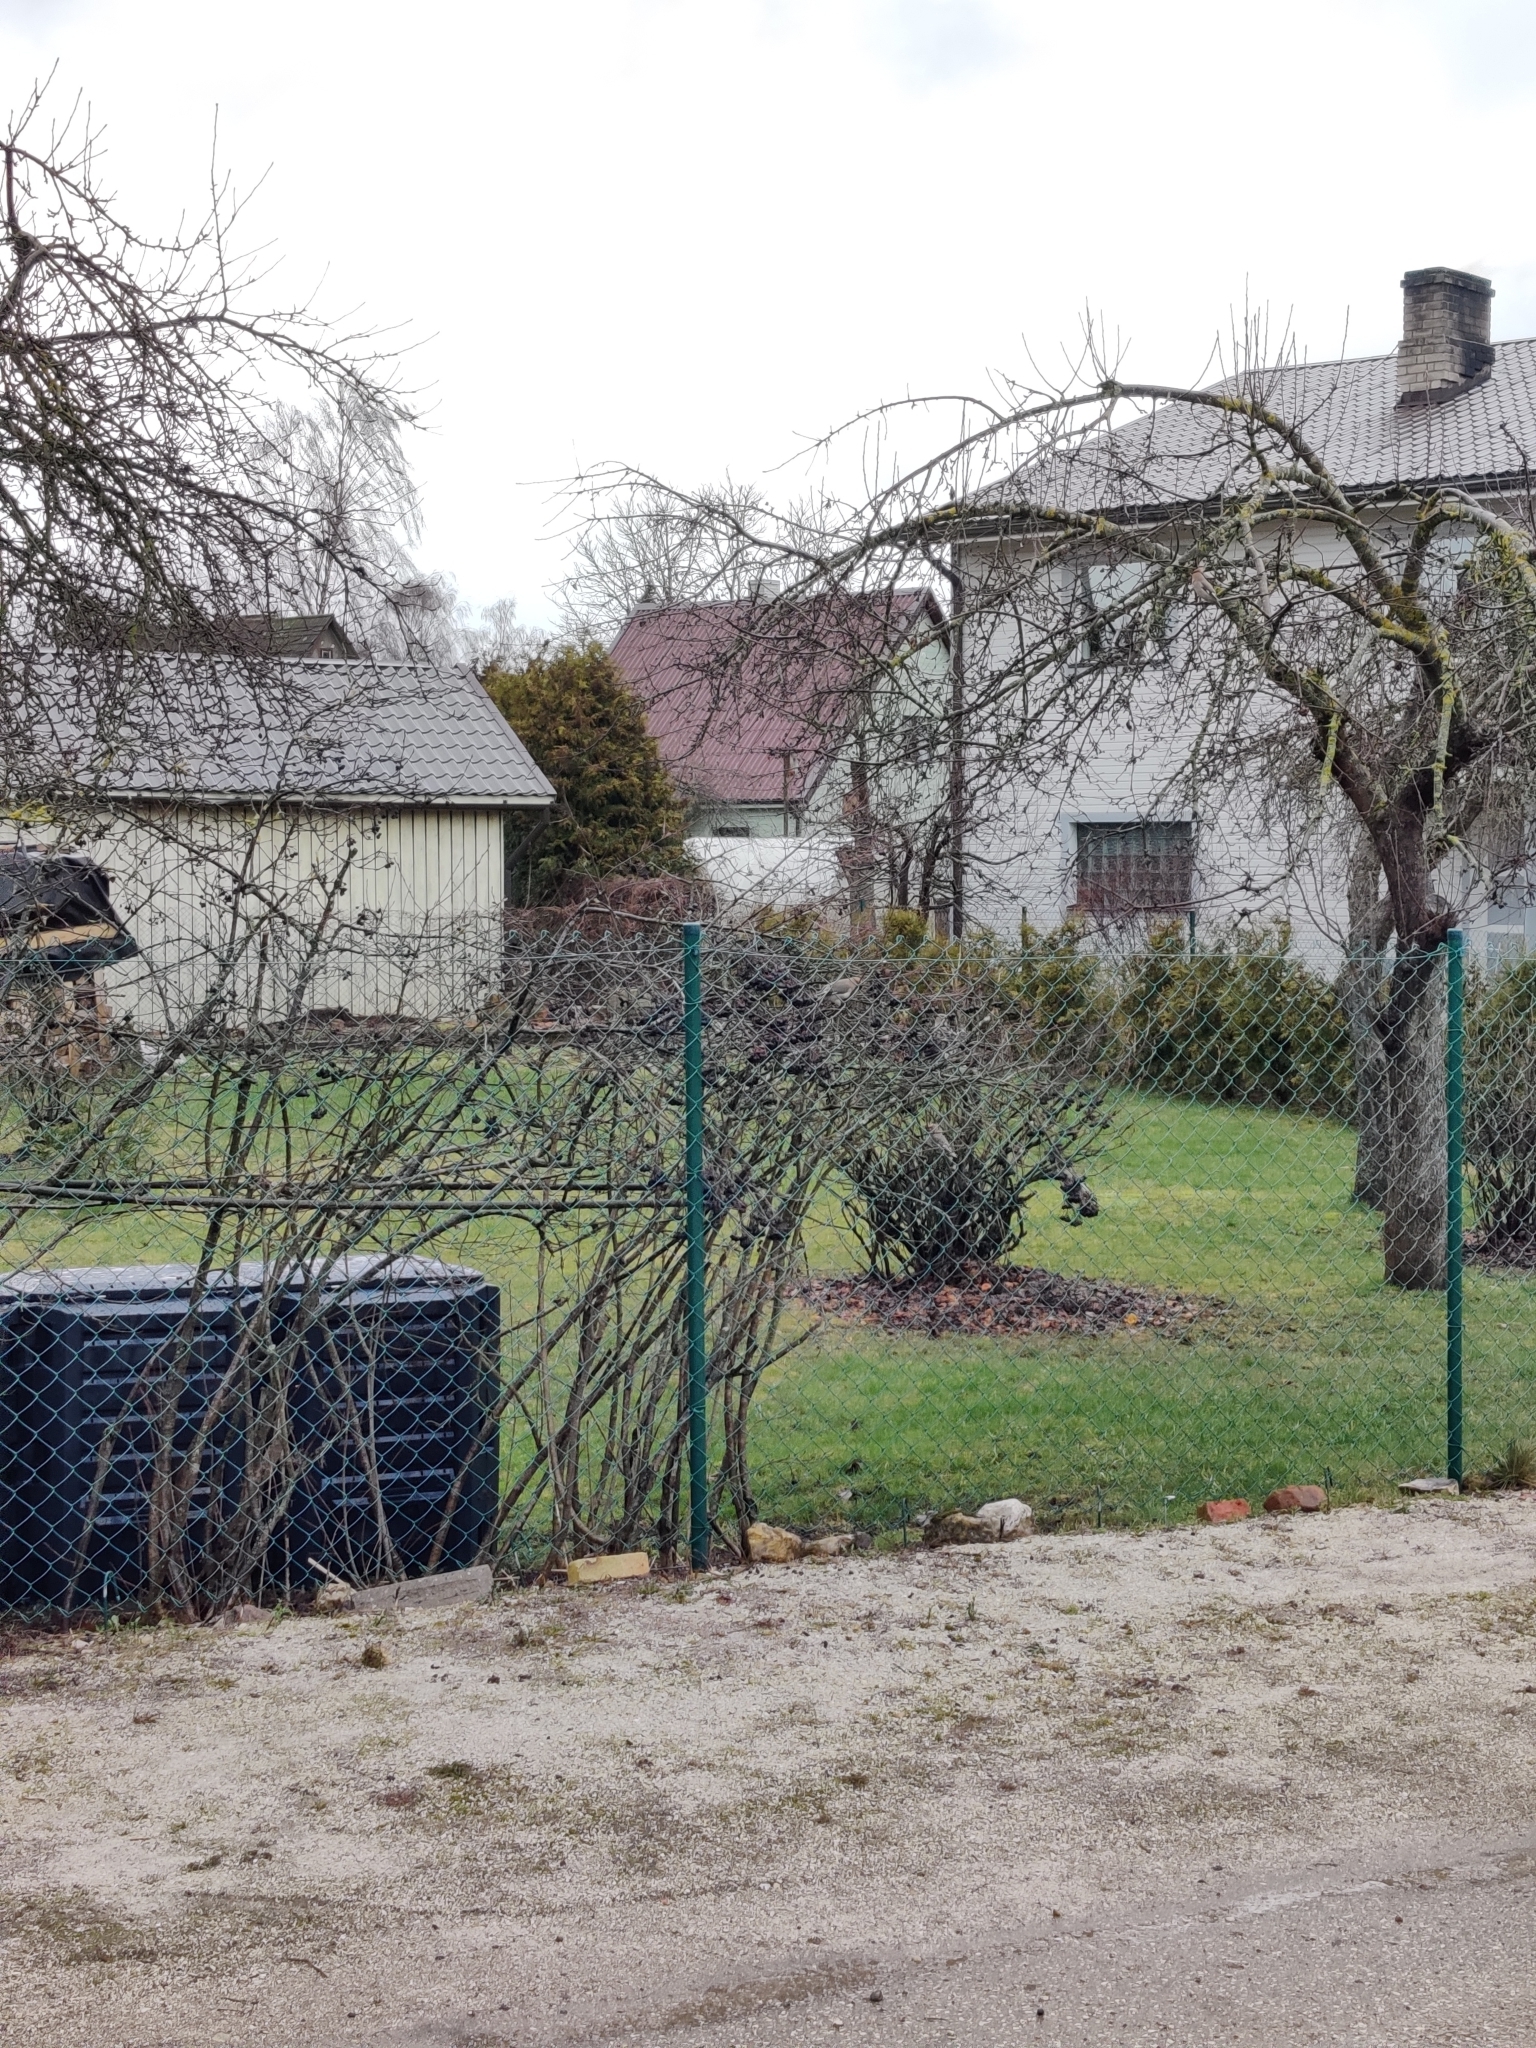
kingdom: Animalia
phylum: Chordata
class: Aves
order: Passeriformes
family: Bombycillidae
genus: Bombycilla
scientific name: Bombycilla garrulus
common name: Bohemian waxwing
